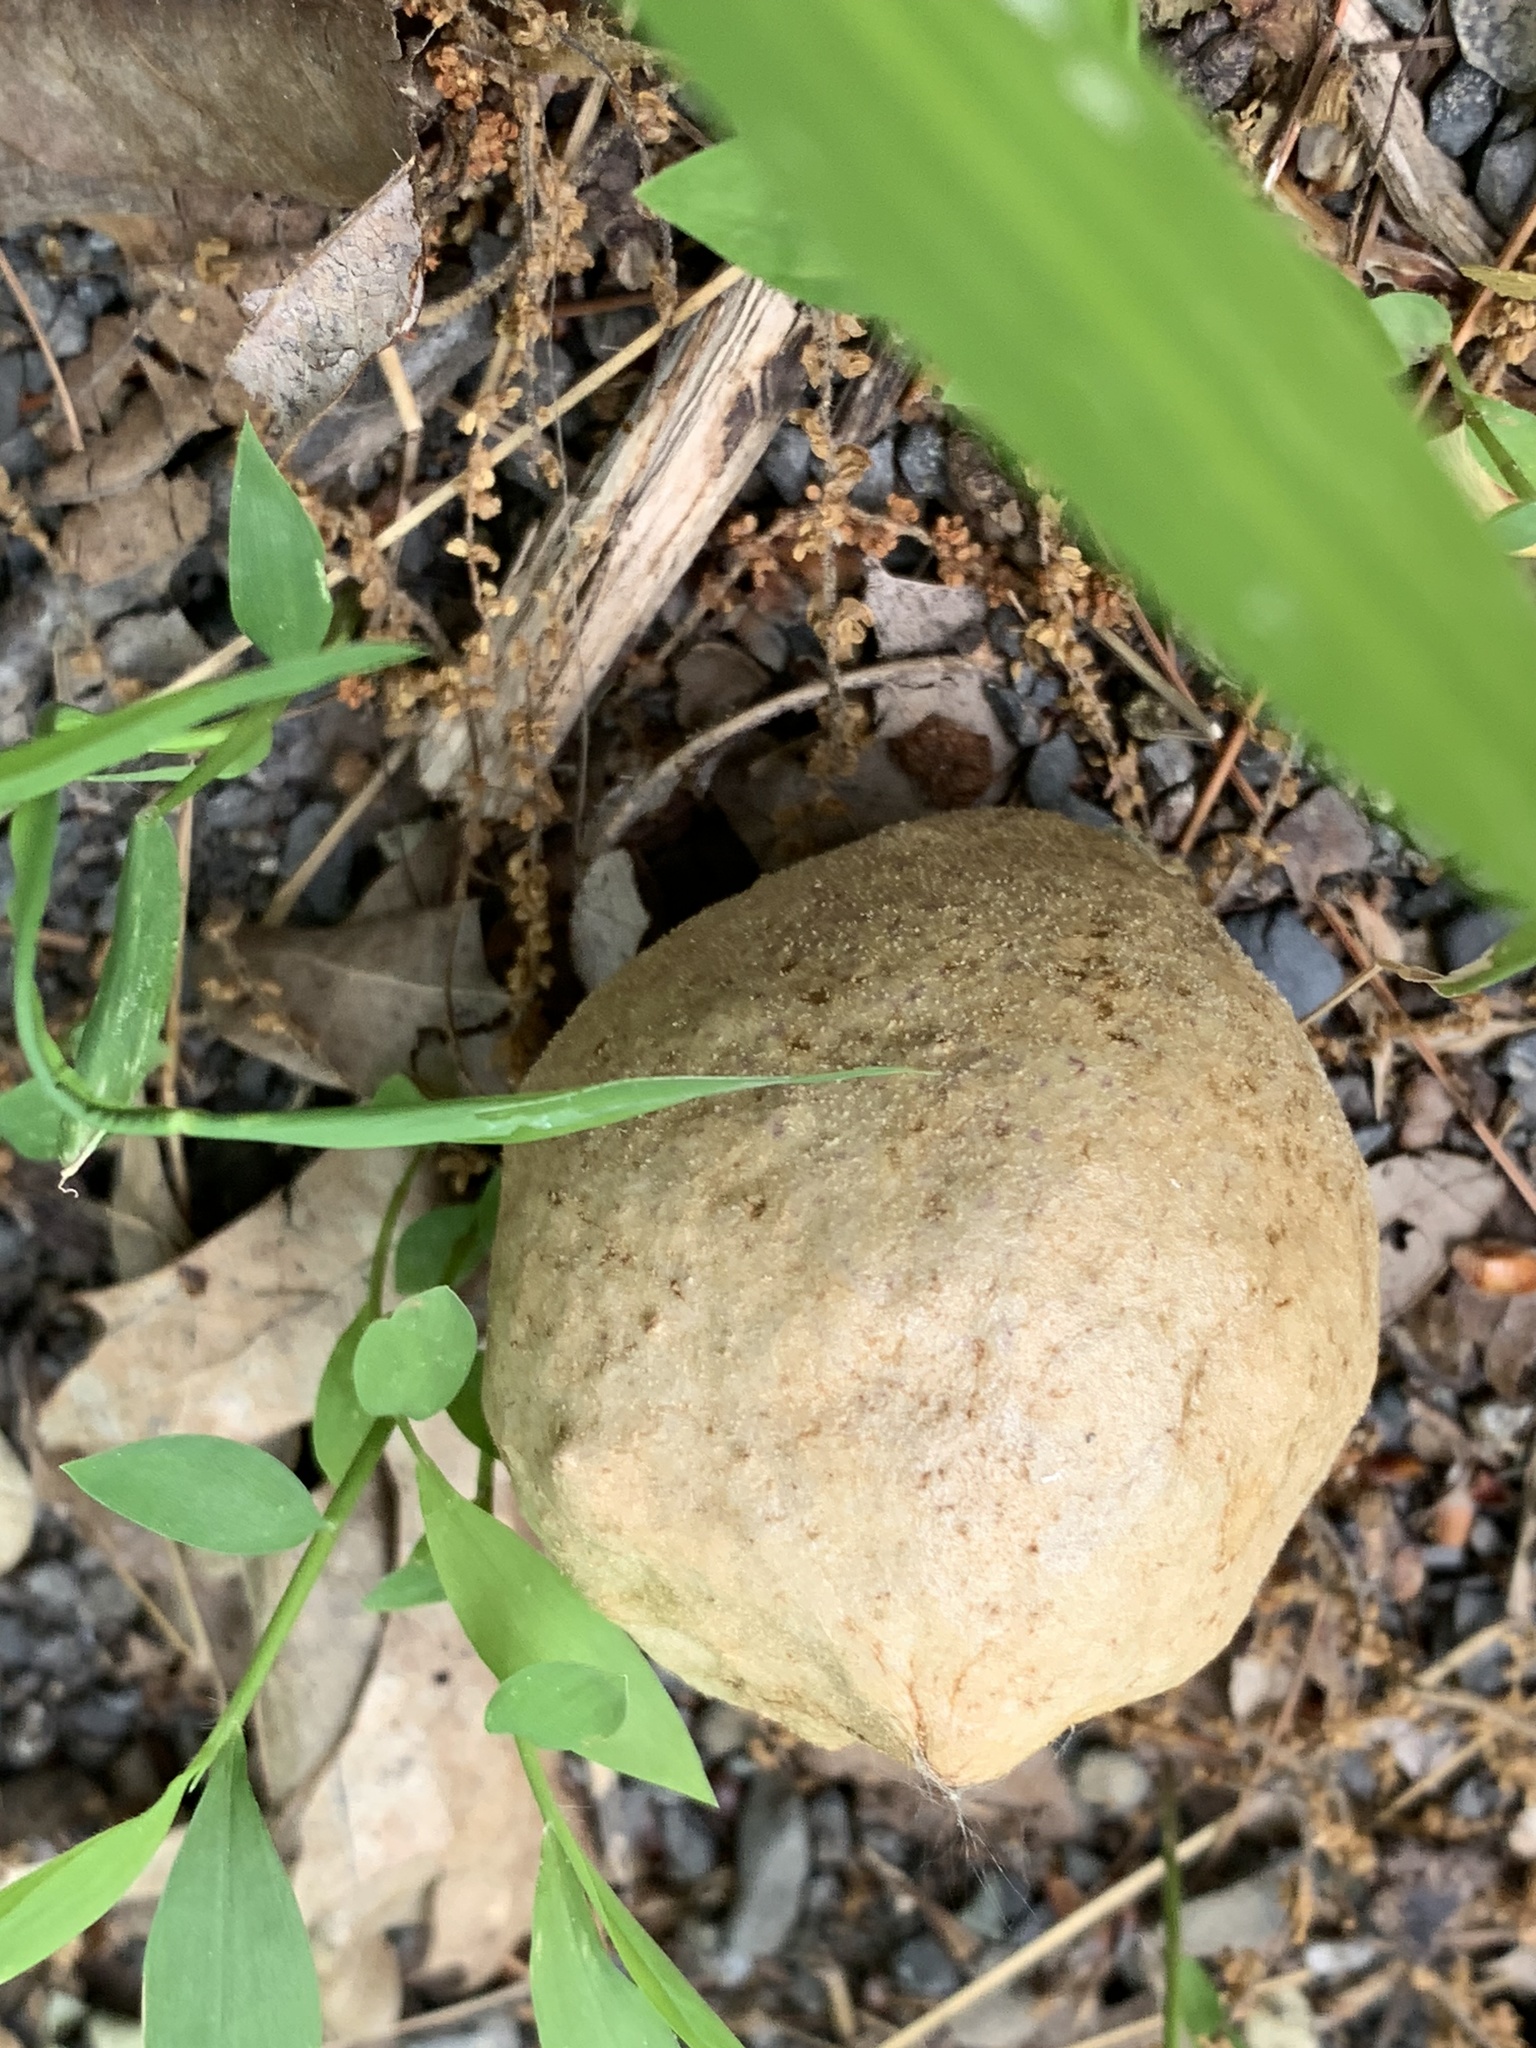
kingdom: Animalia
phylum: Arthropoda
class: Insecta
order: Hymenoptera
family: Cynipidae
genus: Amphibolips
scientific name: Amphibolips
